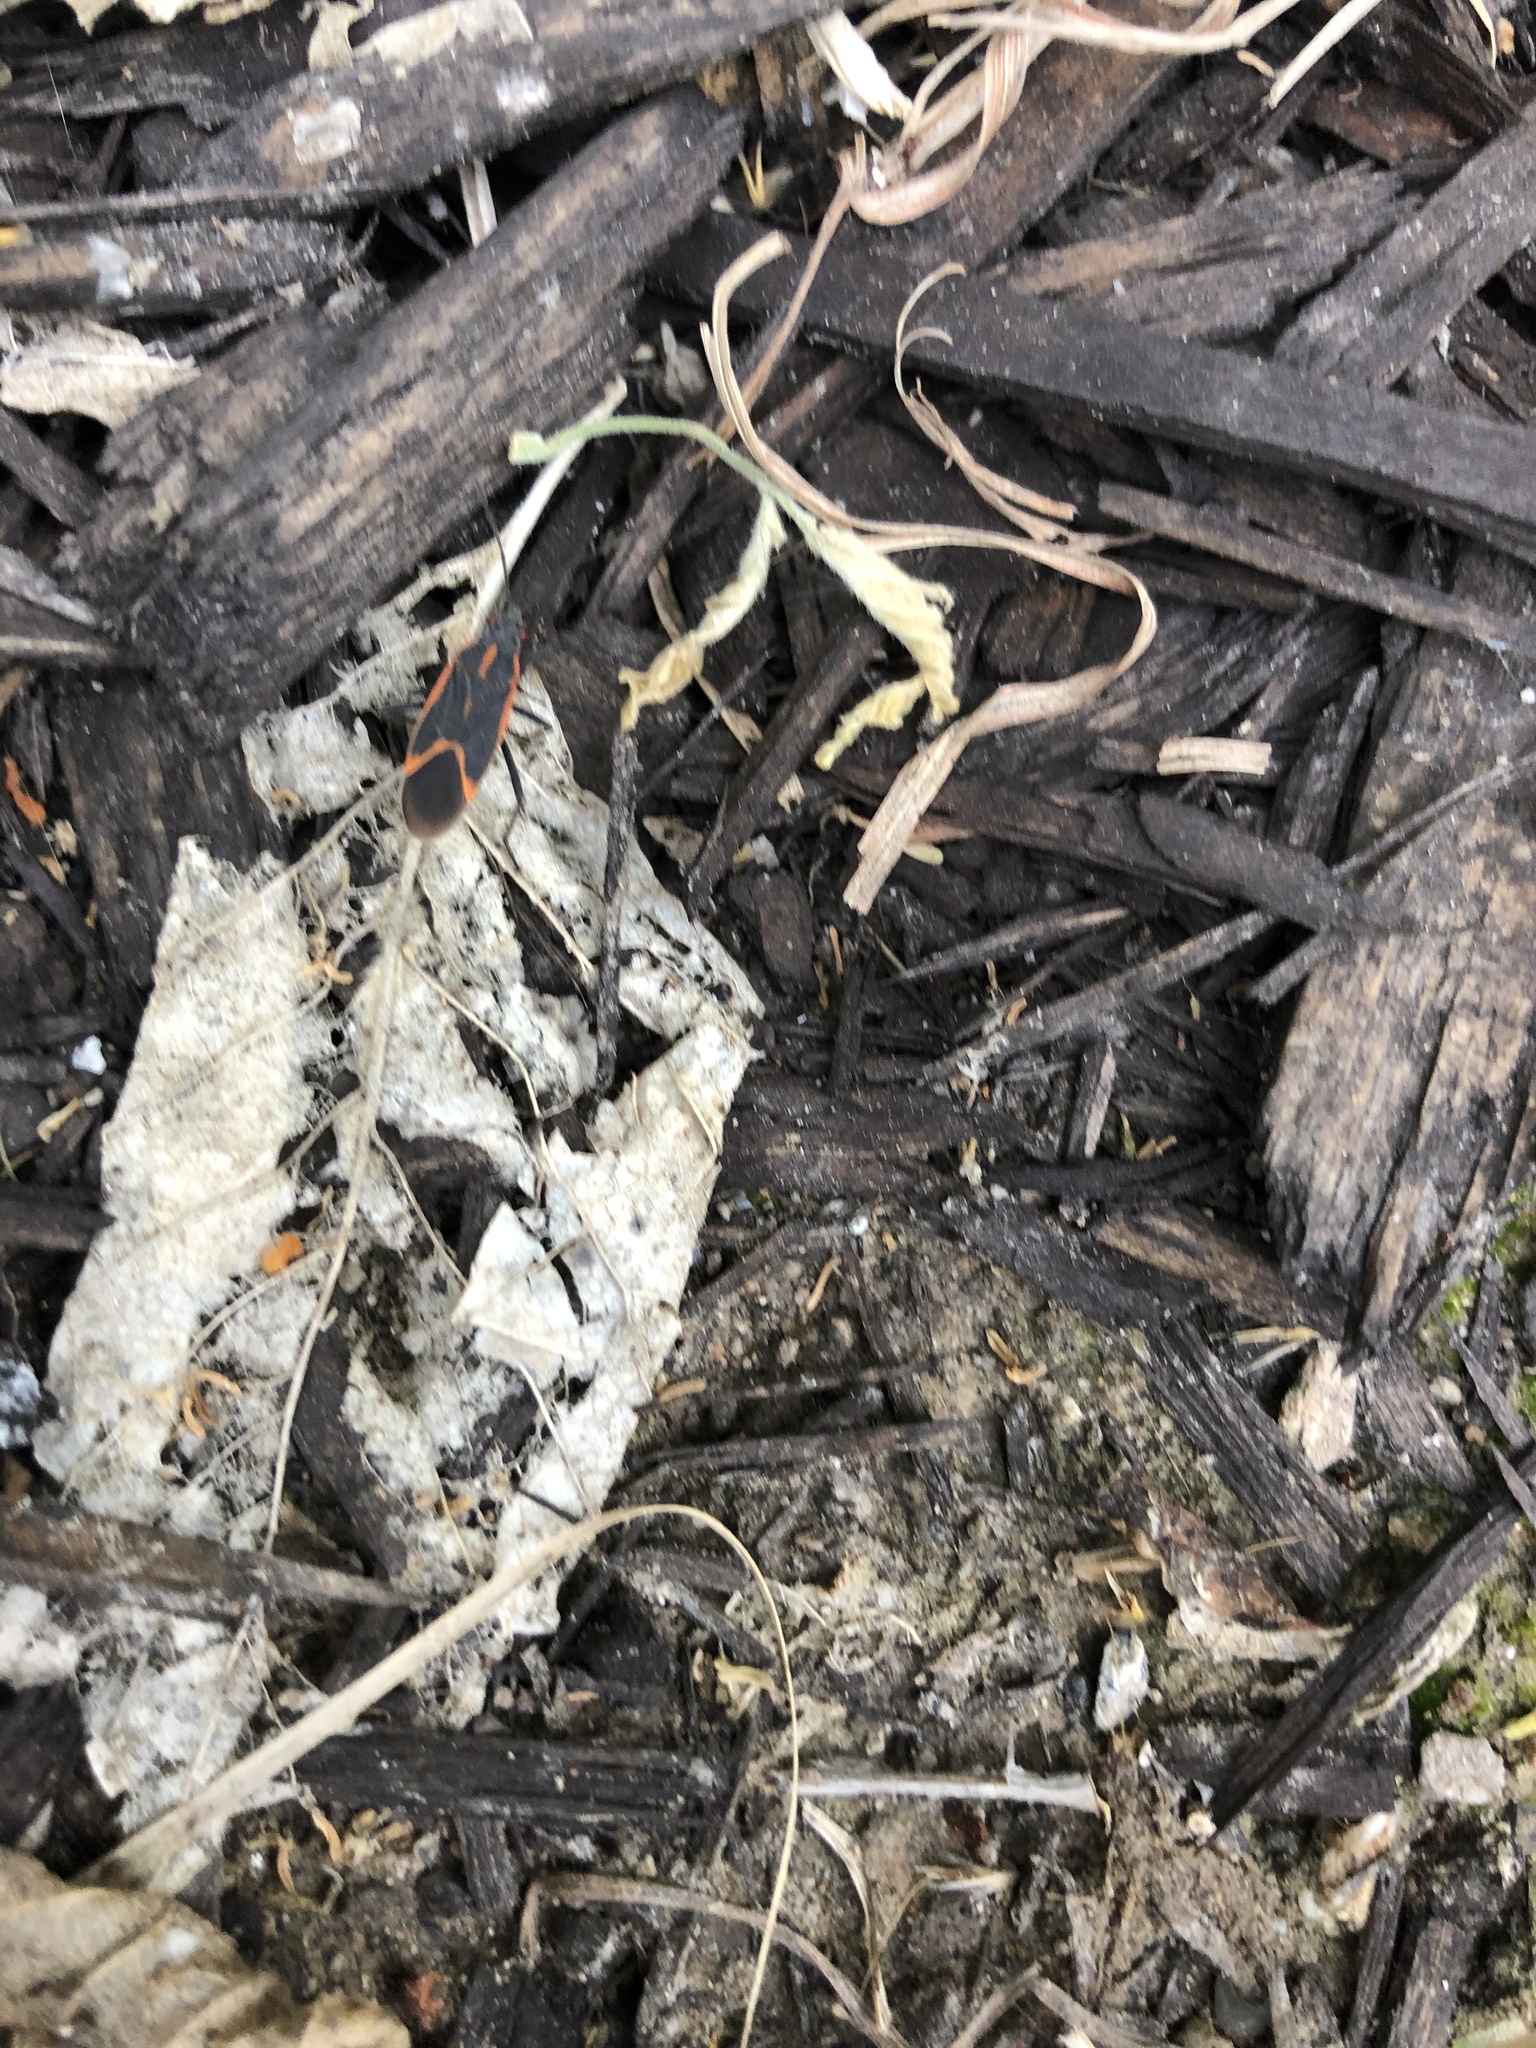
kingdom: Animalia
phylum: Arthropoda
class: Insecta
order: Hemiptera
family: Rhopalidae
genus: Boisea
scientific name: Boisea trivittata
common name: Boxelder bug
